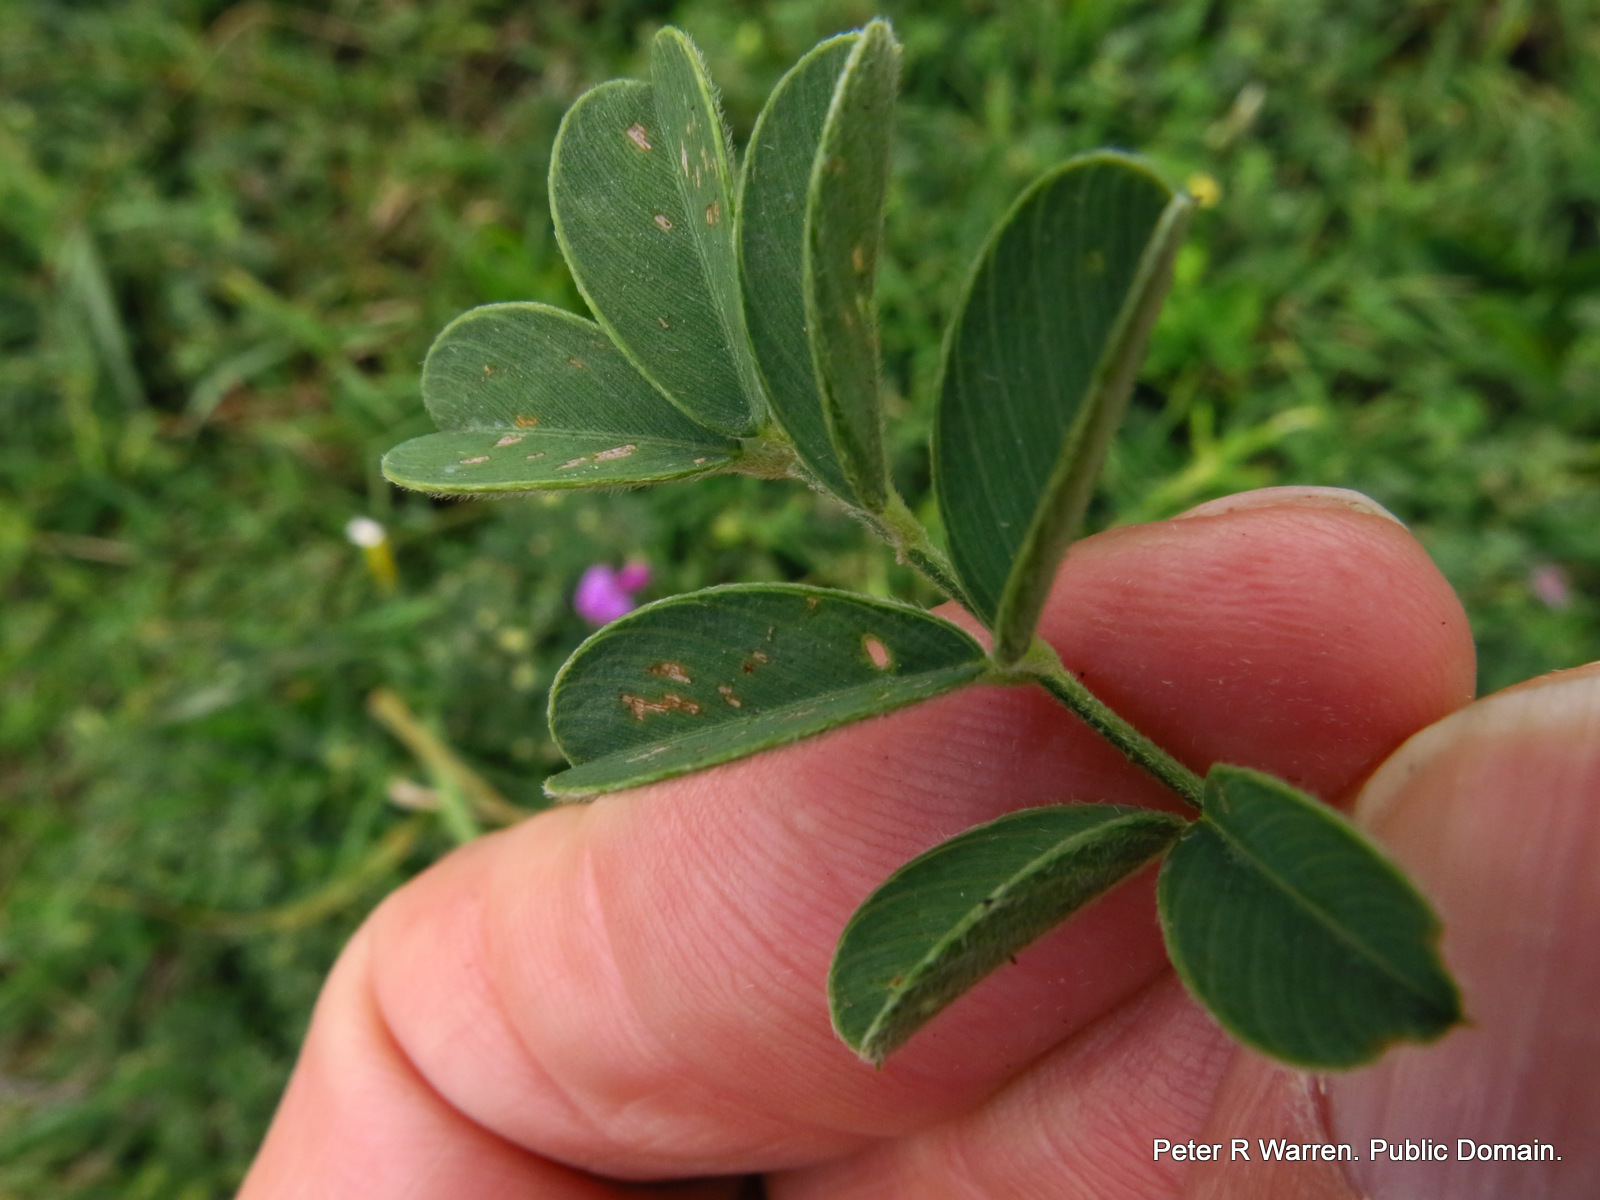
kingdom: Plantae
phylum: Tracheophyta
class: Magnoliopsida
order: Fabales
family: Fabaceae
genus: Tephrosia
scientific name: Tephrosia purpurea
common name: Fishpoison
